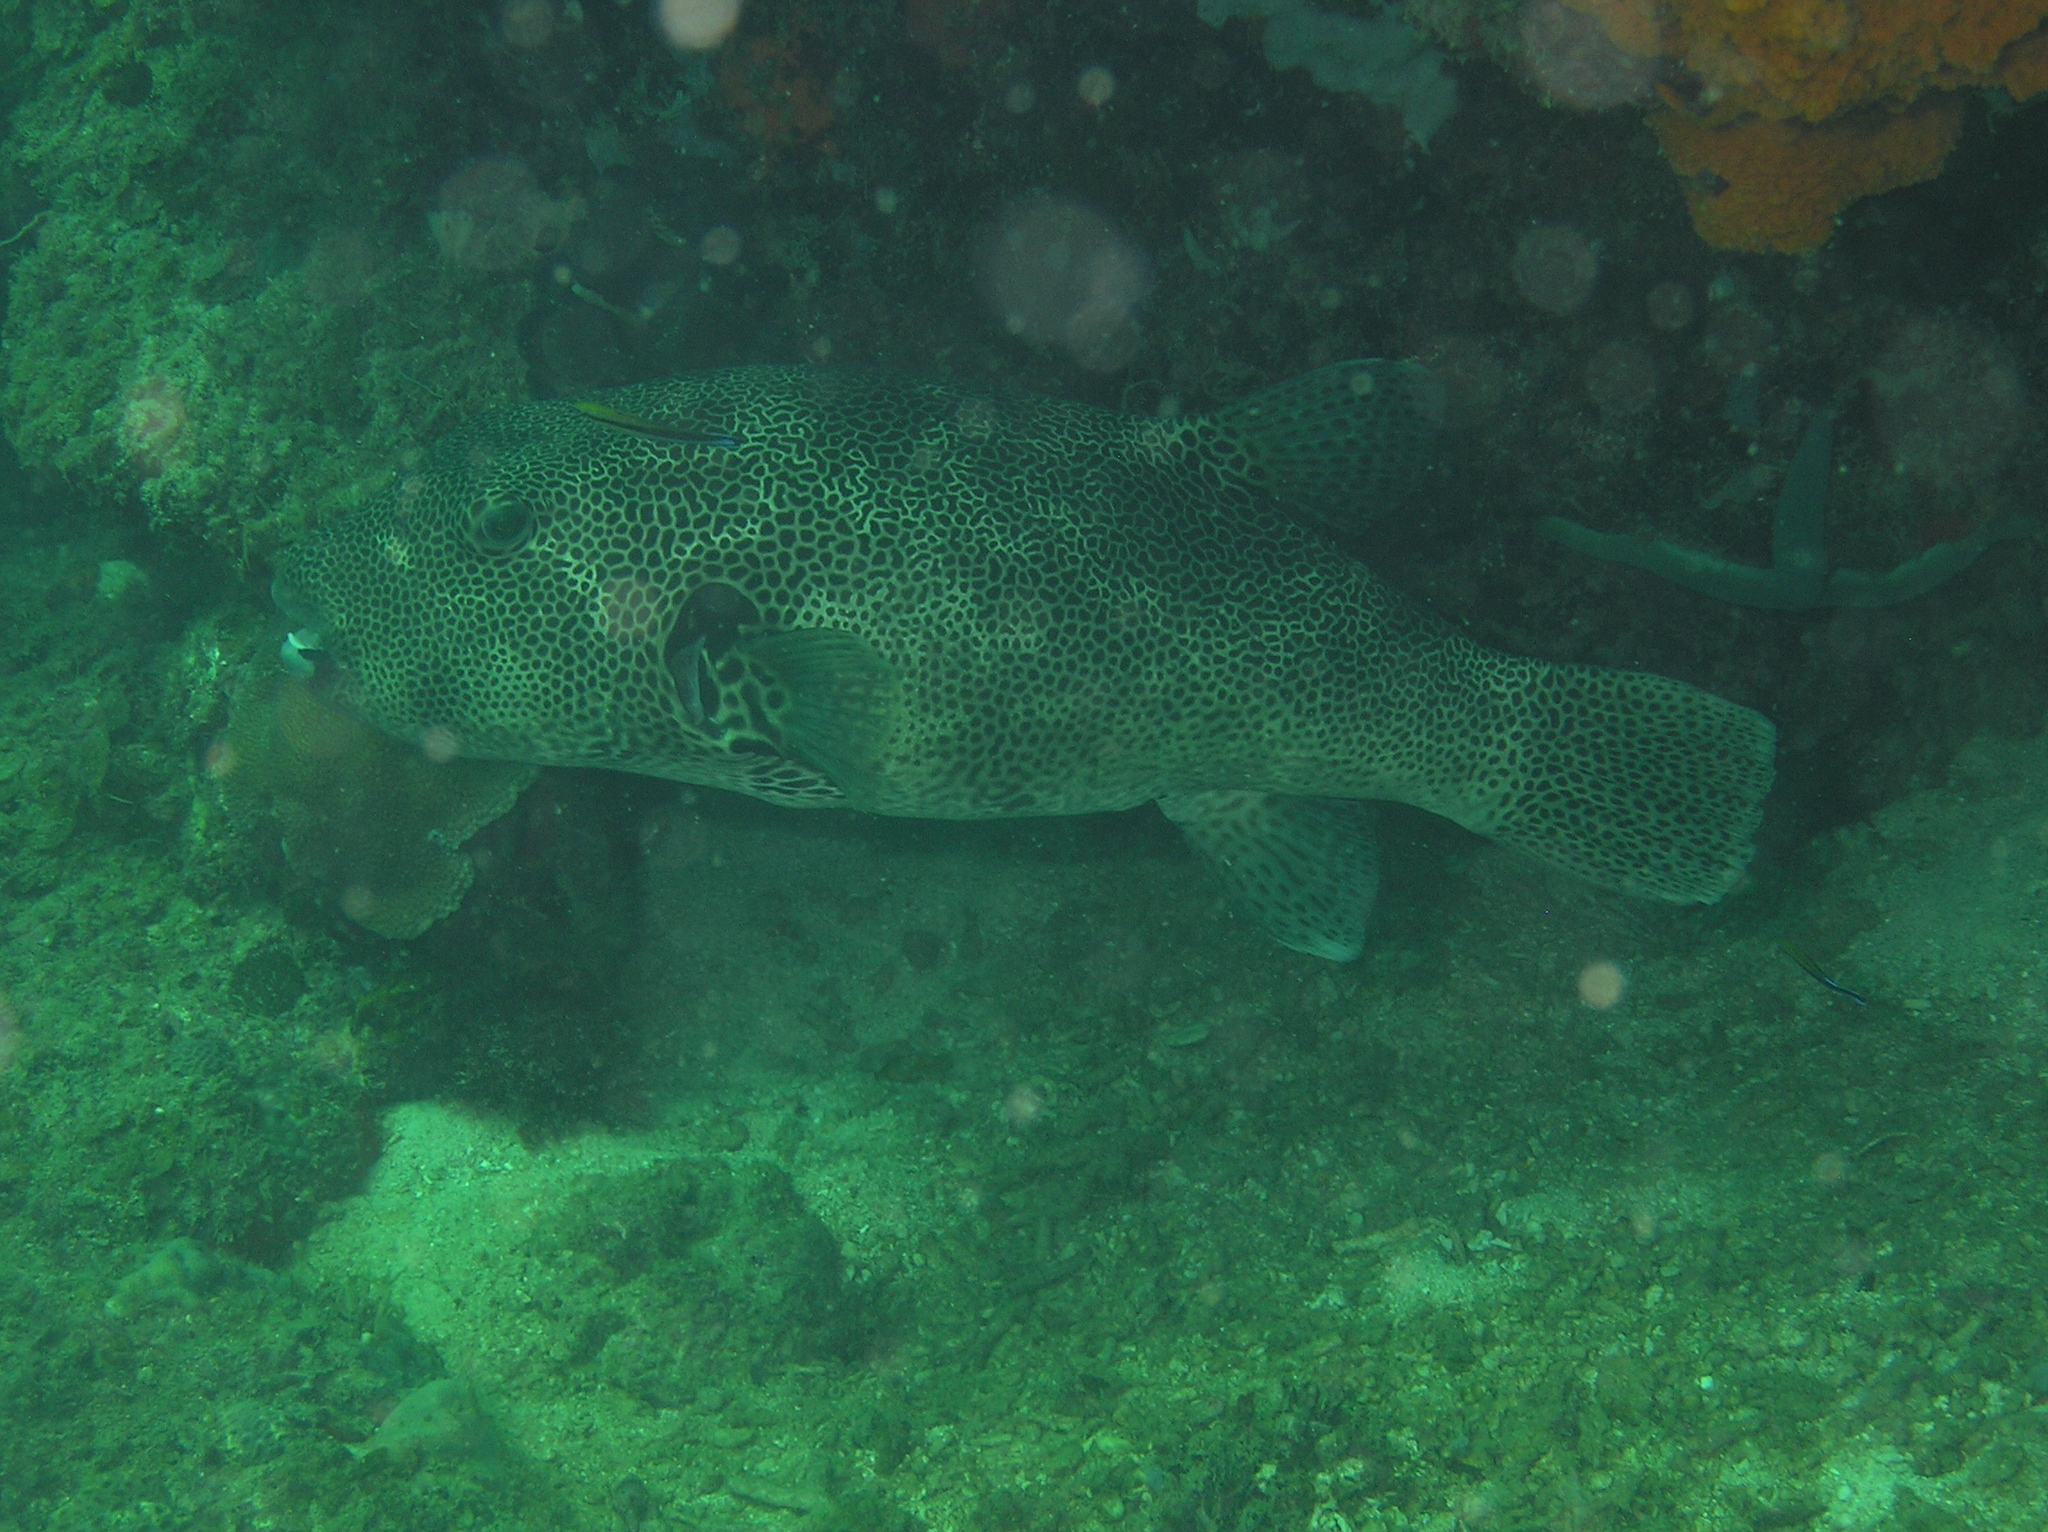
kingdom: Animalia
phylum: Chordata
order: Tetraodontiformes
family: Tetraodontidae
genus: Arothron
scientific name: Arothron stellatus
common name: Star blaasop
